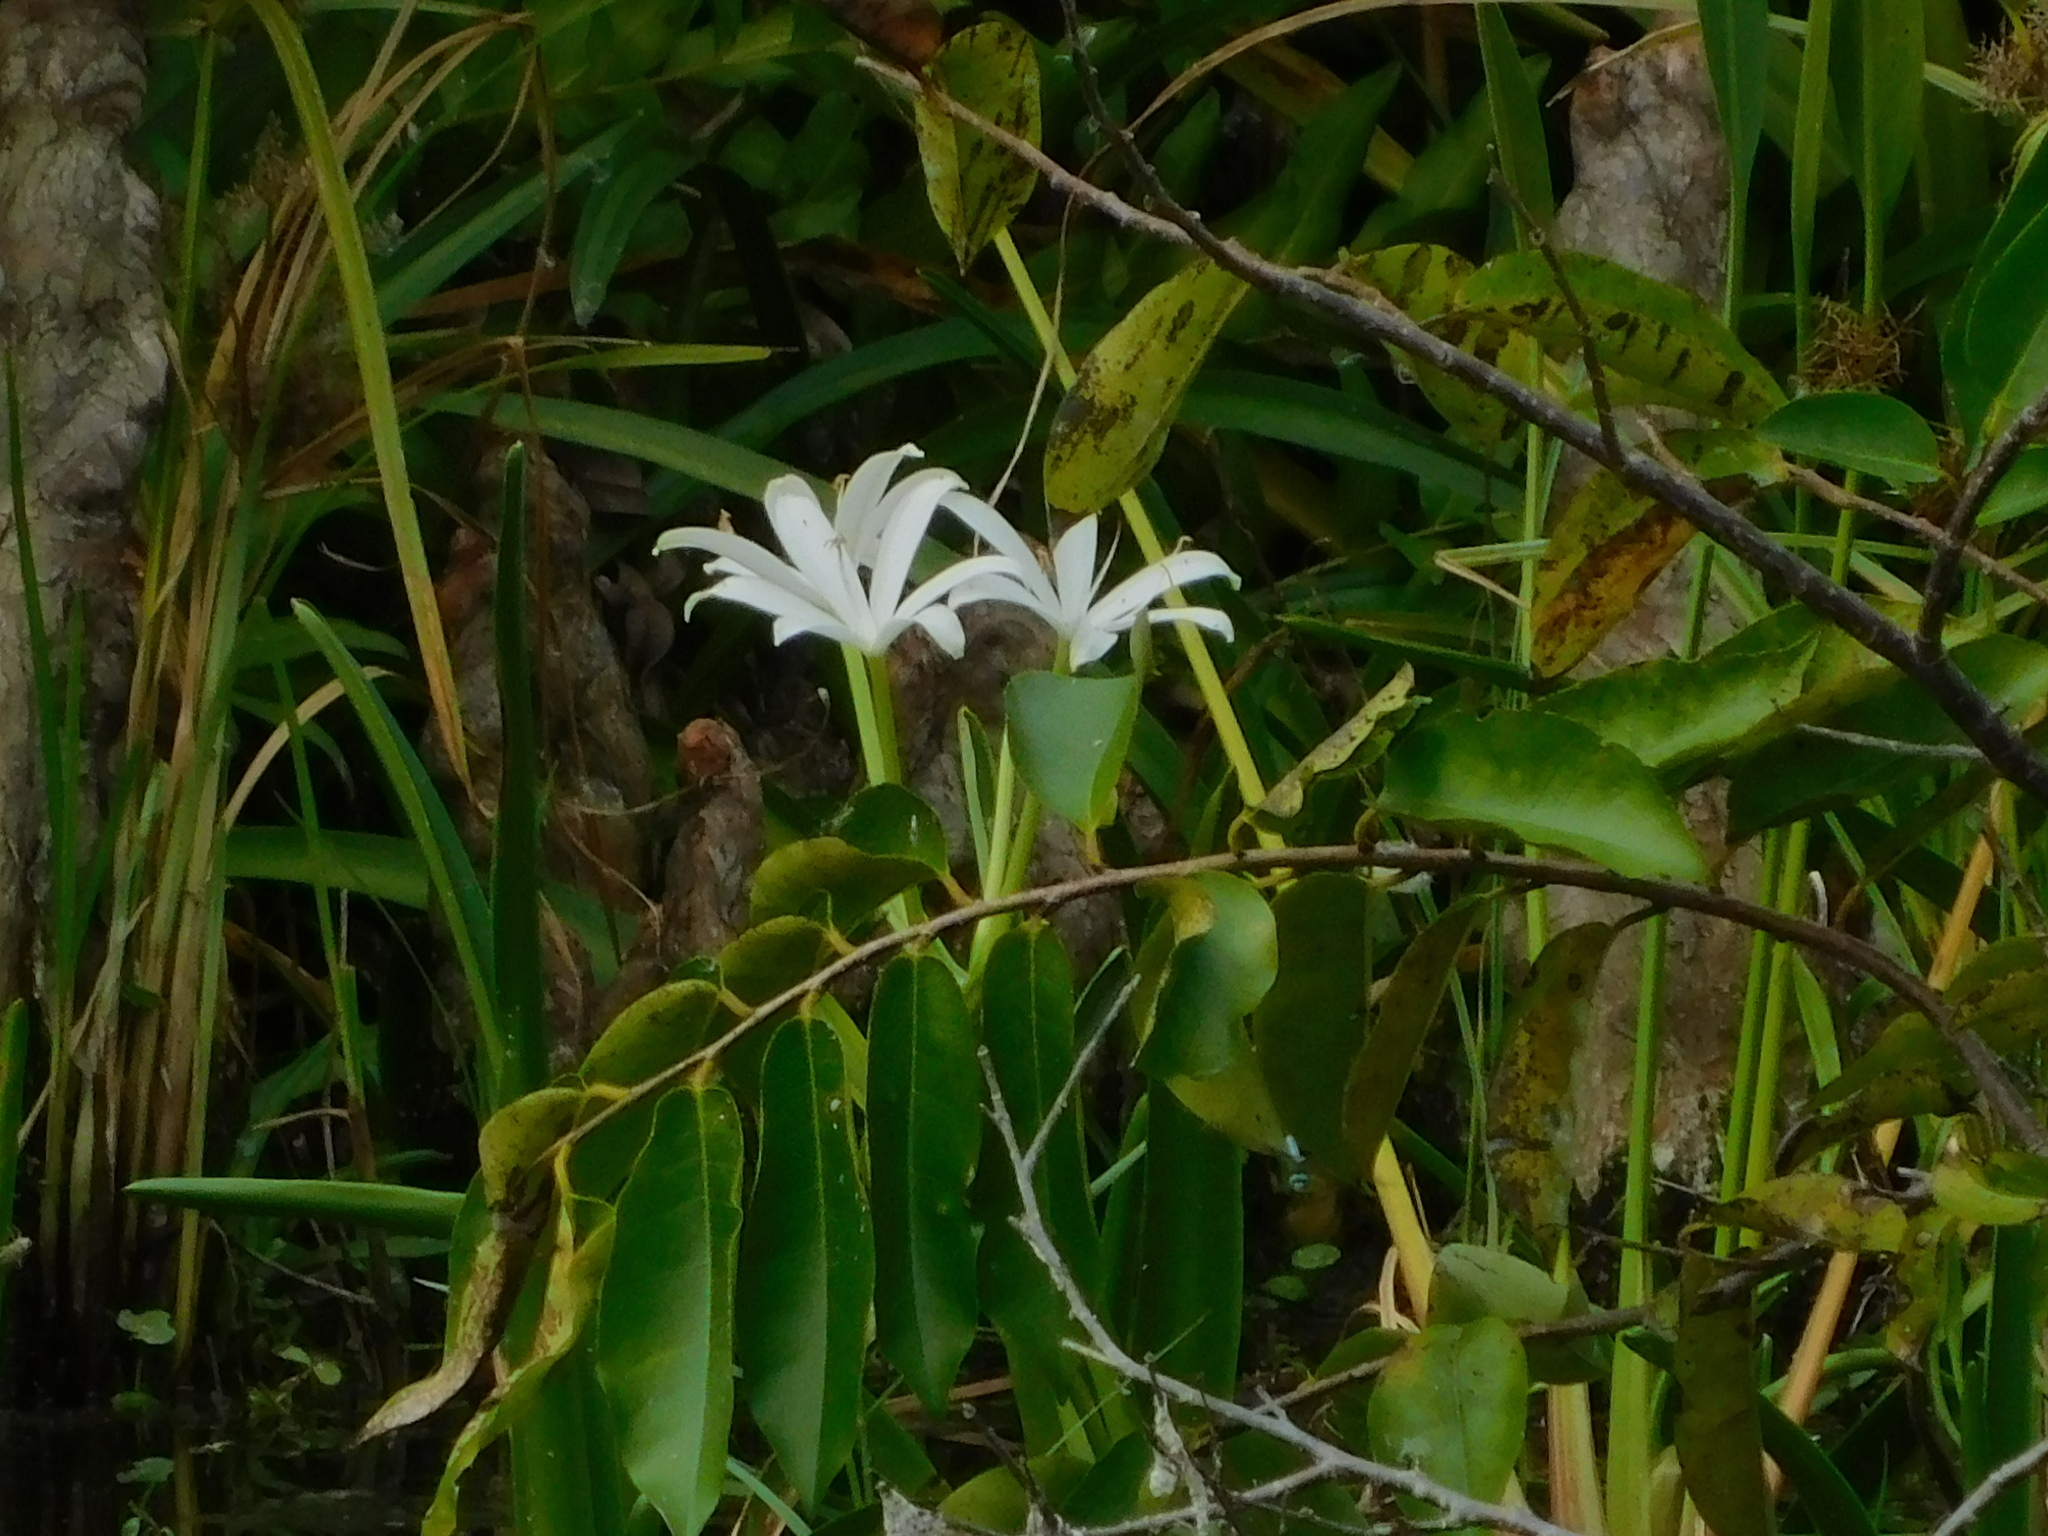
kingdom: Plantae
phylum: Tracheophyta
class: Liliopsida
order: Asparagales
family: Amaryllidaceae
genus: Crinum
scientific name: Crinum americanum
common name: Florida swamp-lily
